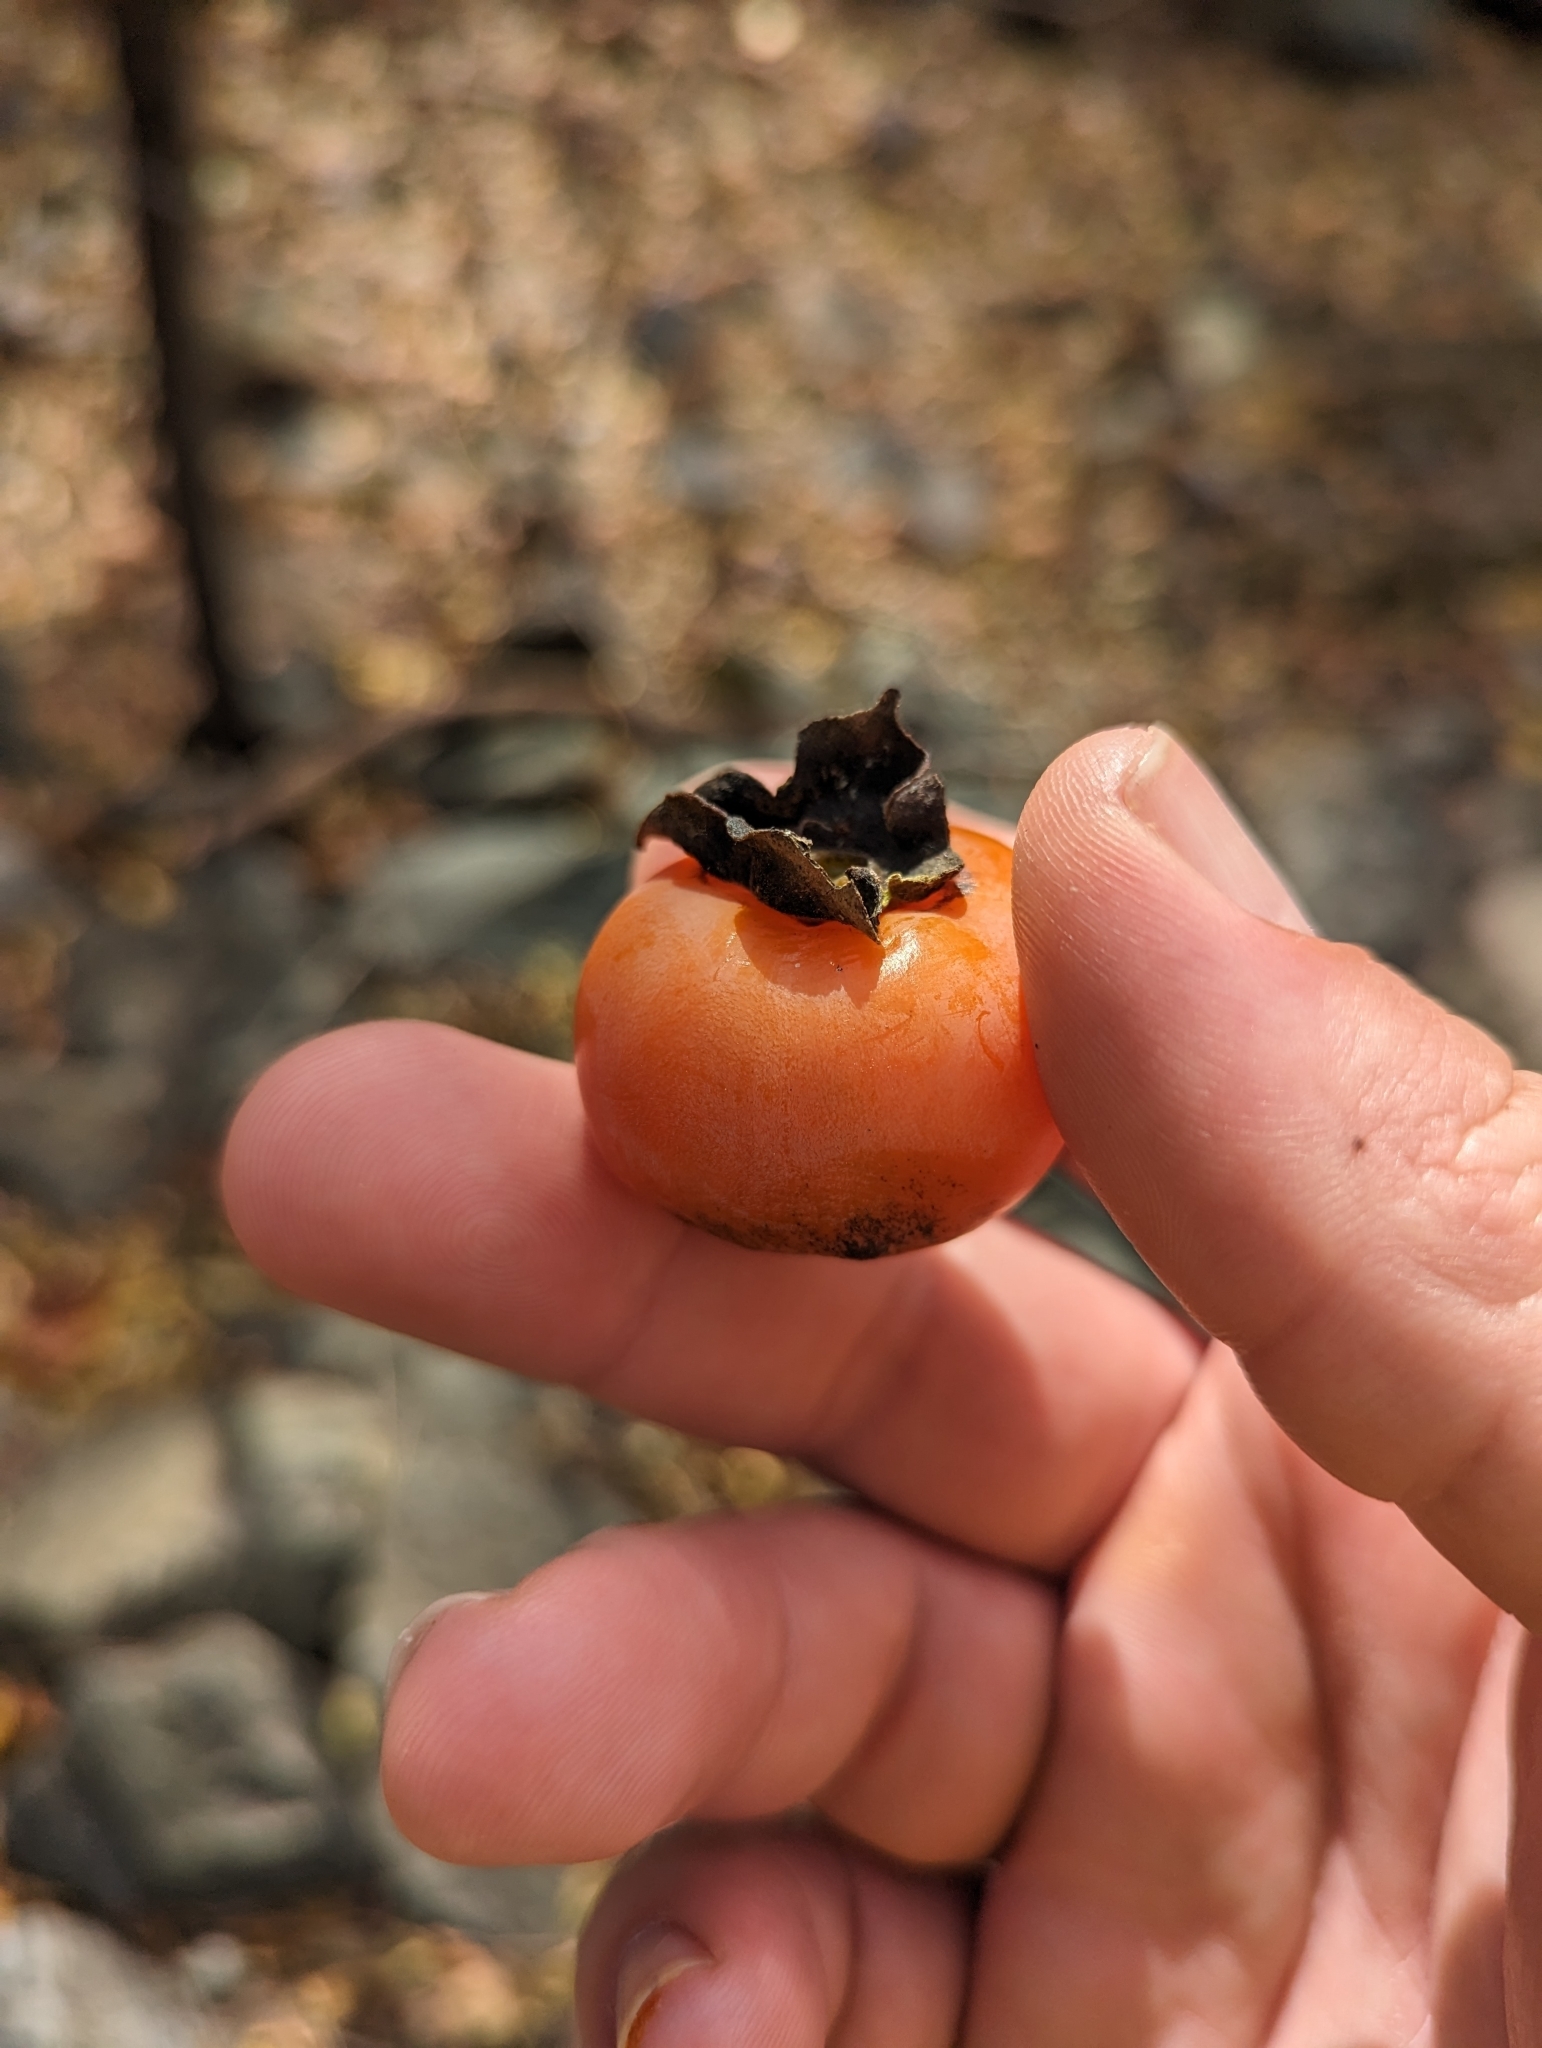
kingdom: Plantae
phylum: Tracheophyta
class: Magnoliopsida
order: Ericales
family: Ebenaceae
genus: Diospyros
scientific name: Diospyros virginiana
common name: Persimmon
